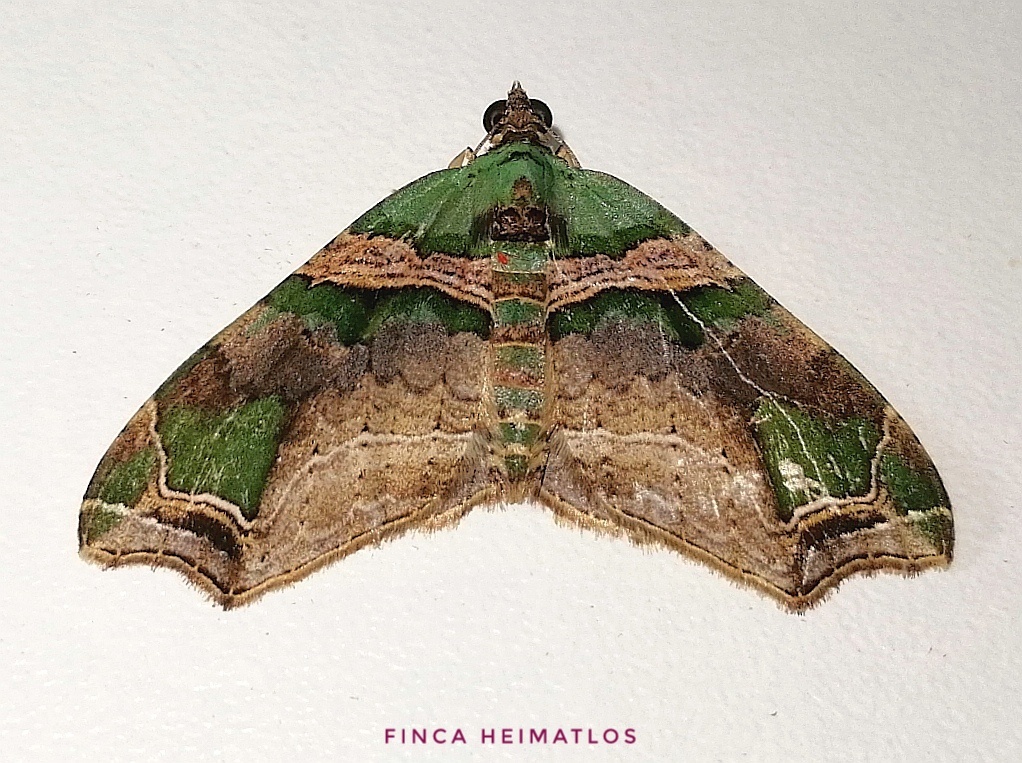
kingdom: Animalia
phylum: Arthropoda
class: Insecta
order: Lepidoptera
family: Geometridae
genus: Oligopleura
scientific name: Oligopleura aulaeata
